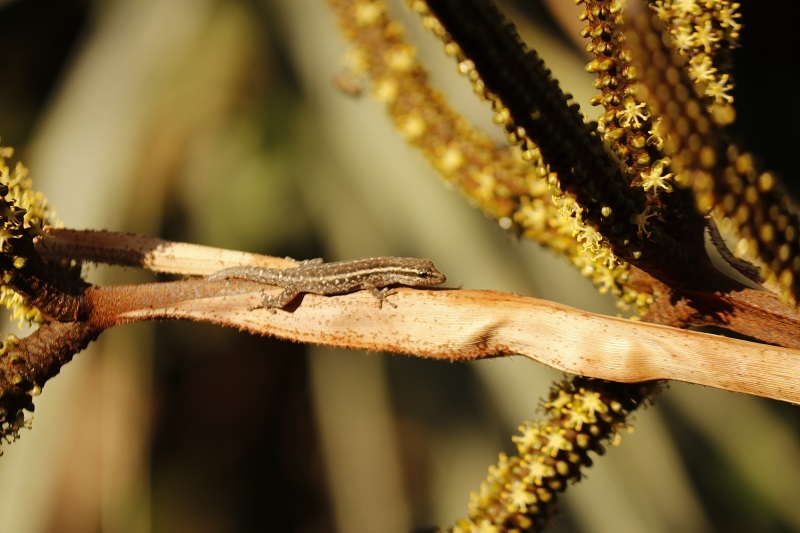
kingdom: Animalia
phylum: Chordata
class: Squamata
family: Gekkonidae
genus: Lygodactylus
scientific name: Lygodactylus capensis
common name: Cape dwarf gecko
